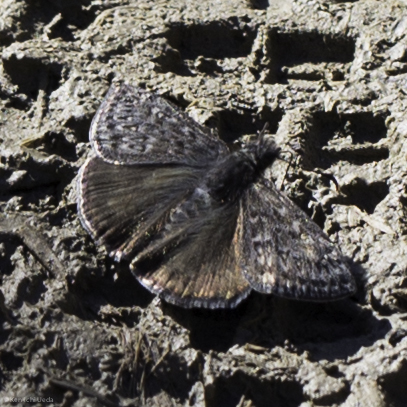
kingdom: Animalia
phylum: Arthropoda
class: Insecta
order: Lepidoptera
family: Hesperiidae
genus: Erynnis
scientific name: Erynnis propertius
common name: Propertius duskywing
